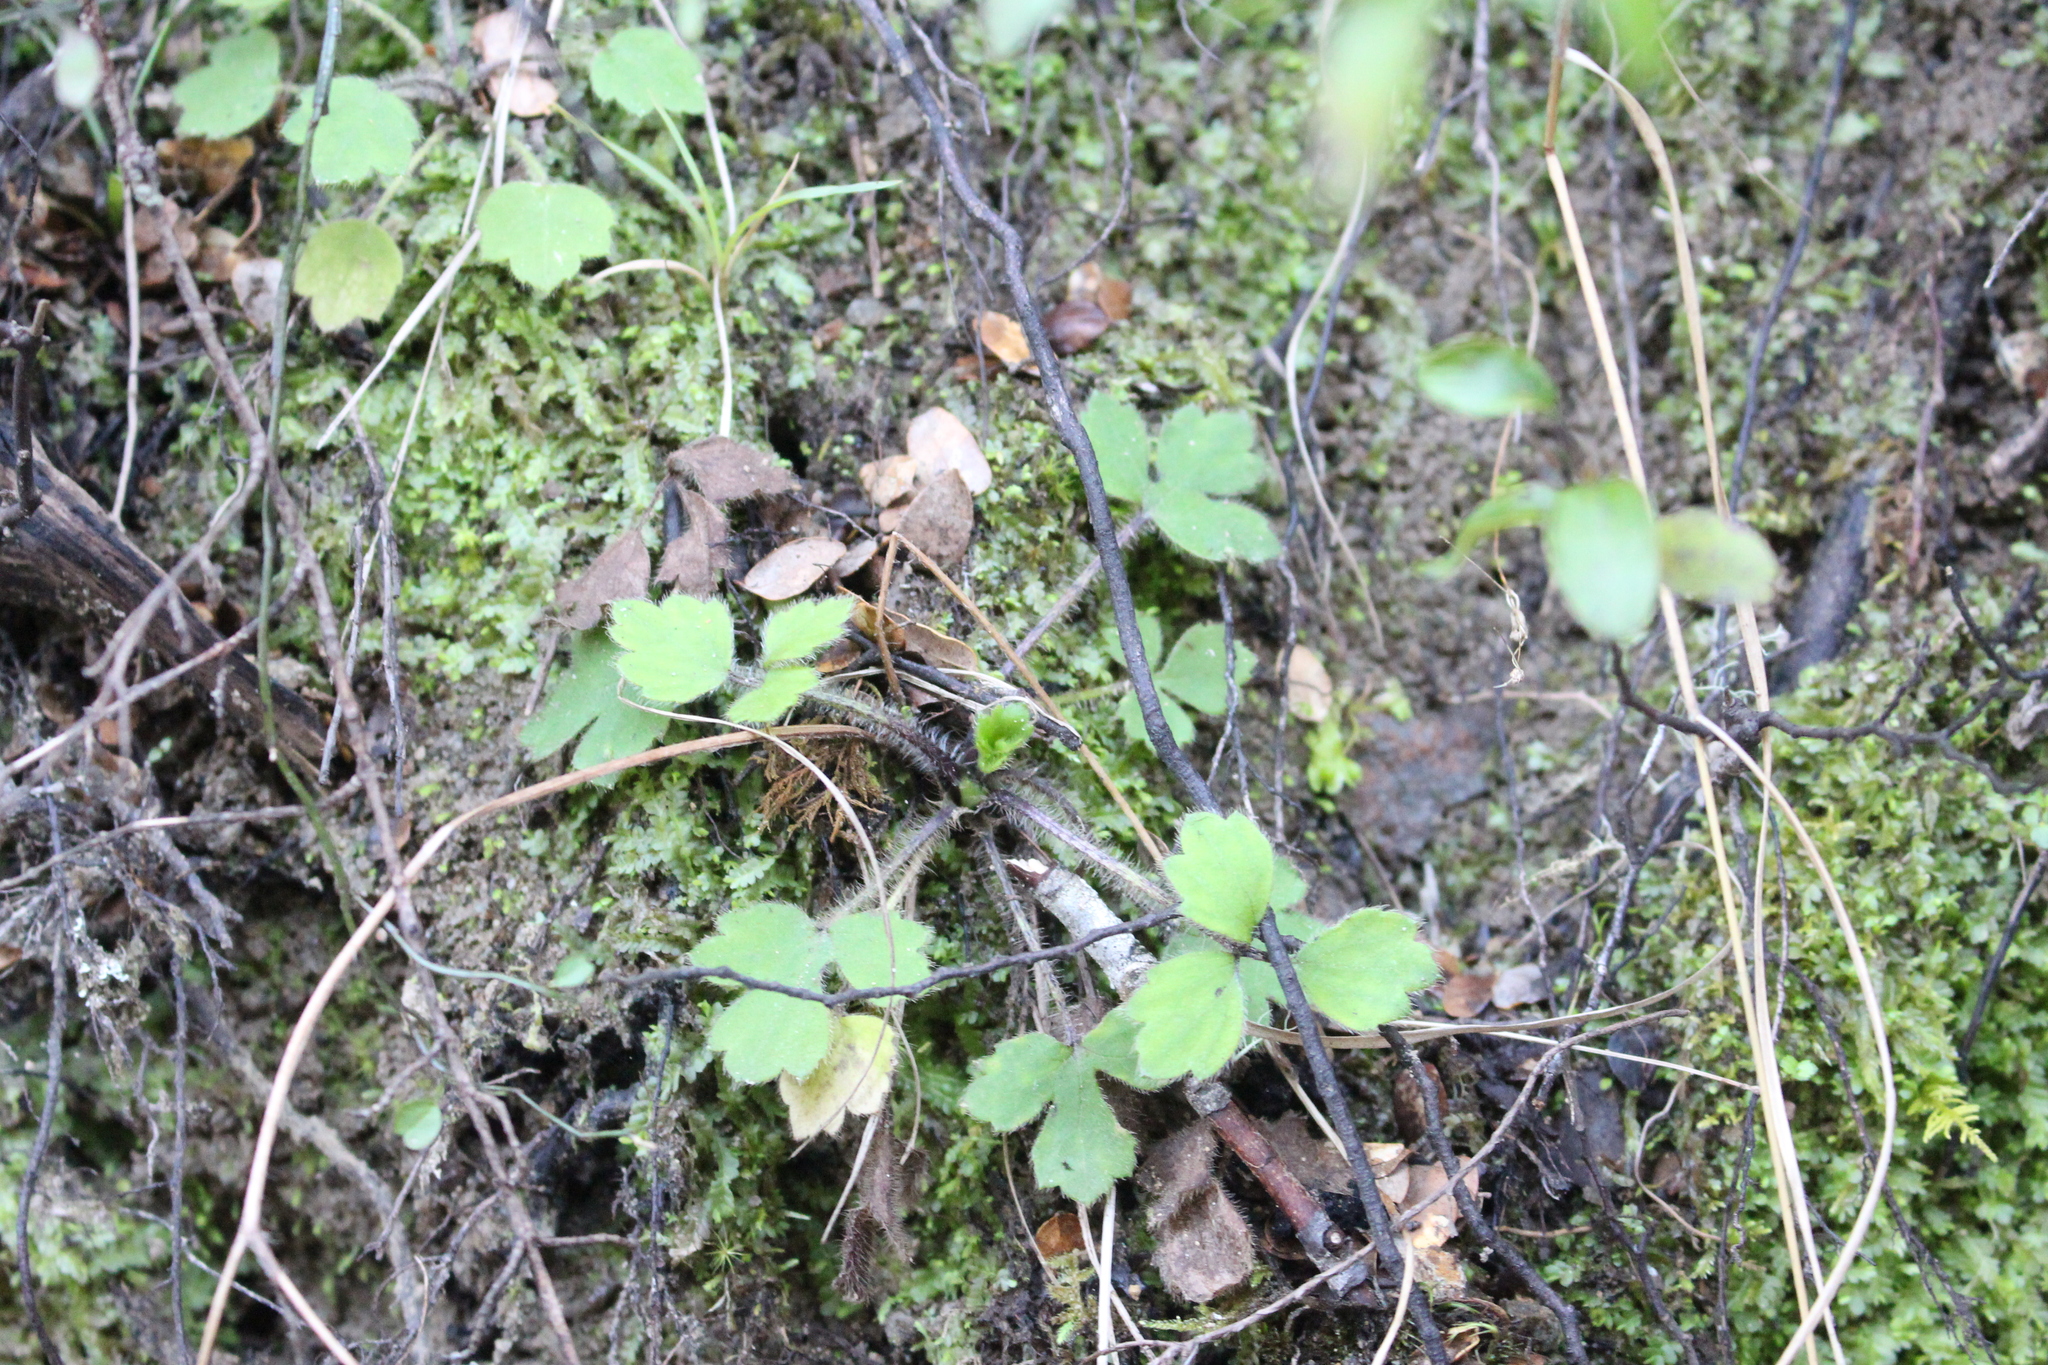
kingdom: Plantae
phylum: Tracheophyta
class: Magnoliopsida
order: Ranunculales
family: Ranunculaceae
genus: Ranunculus
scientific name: Ranunculus reflexus
